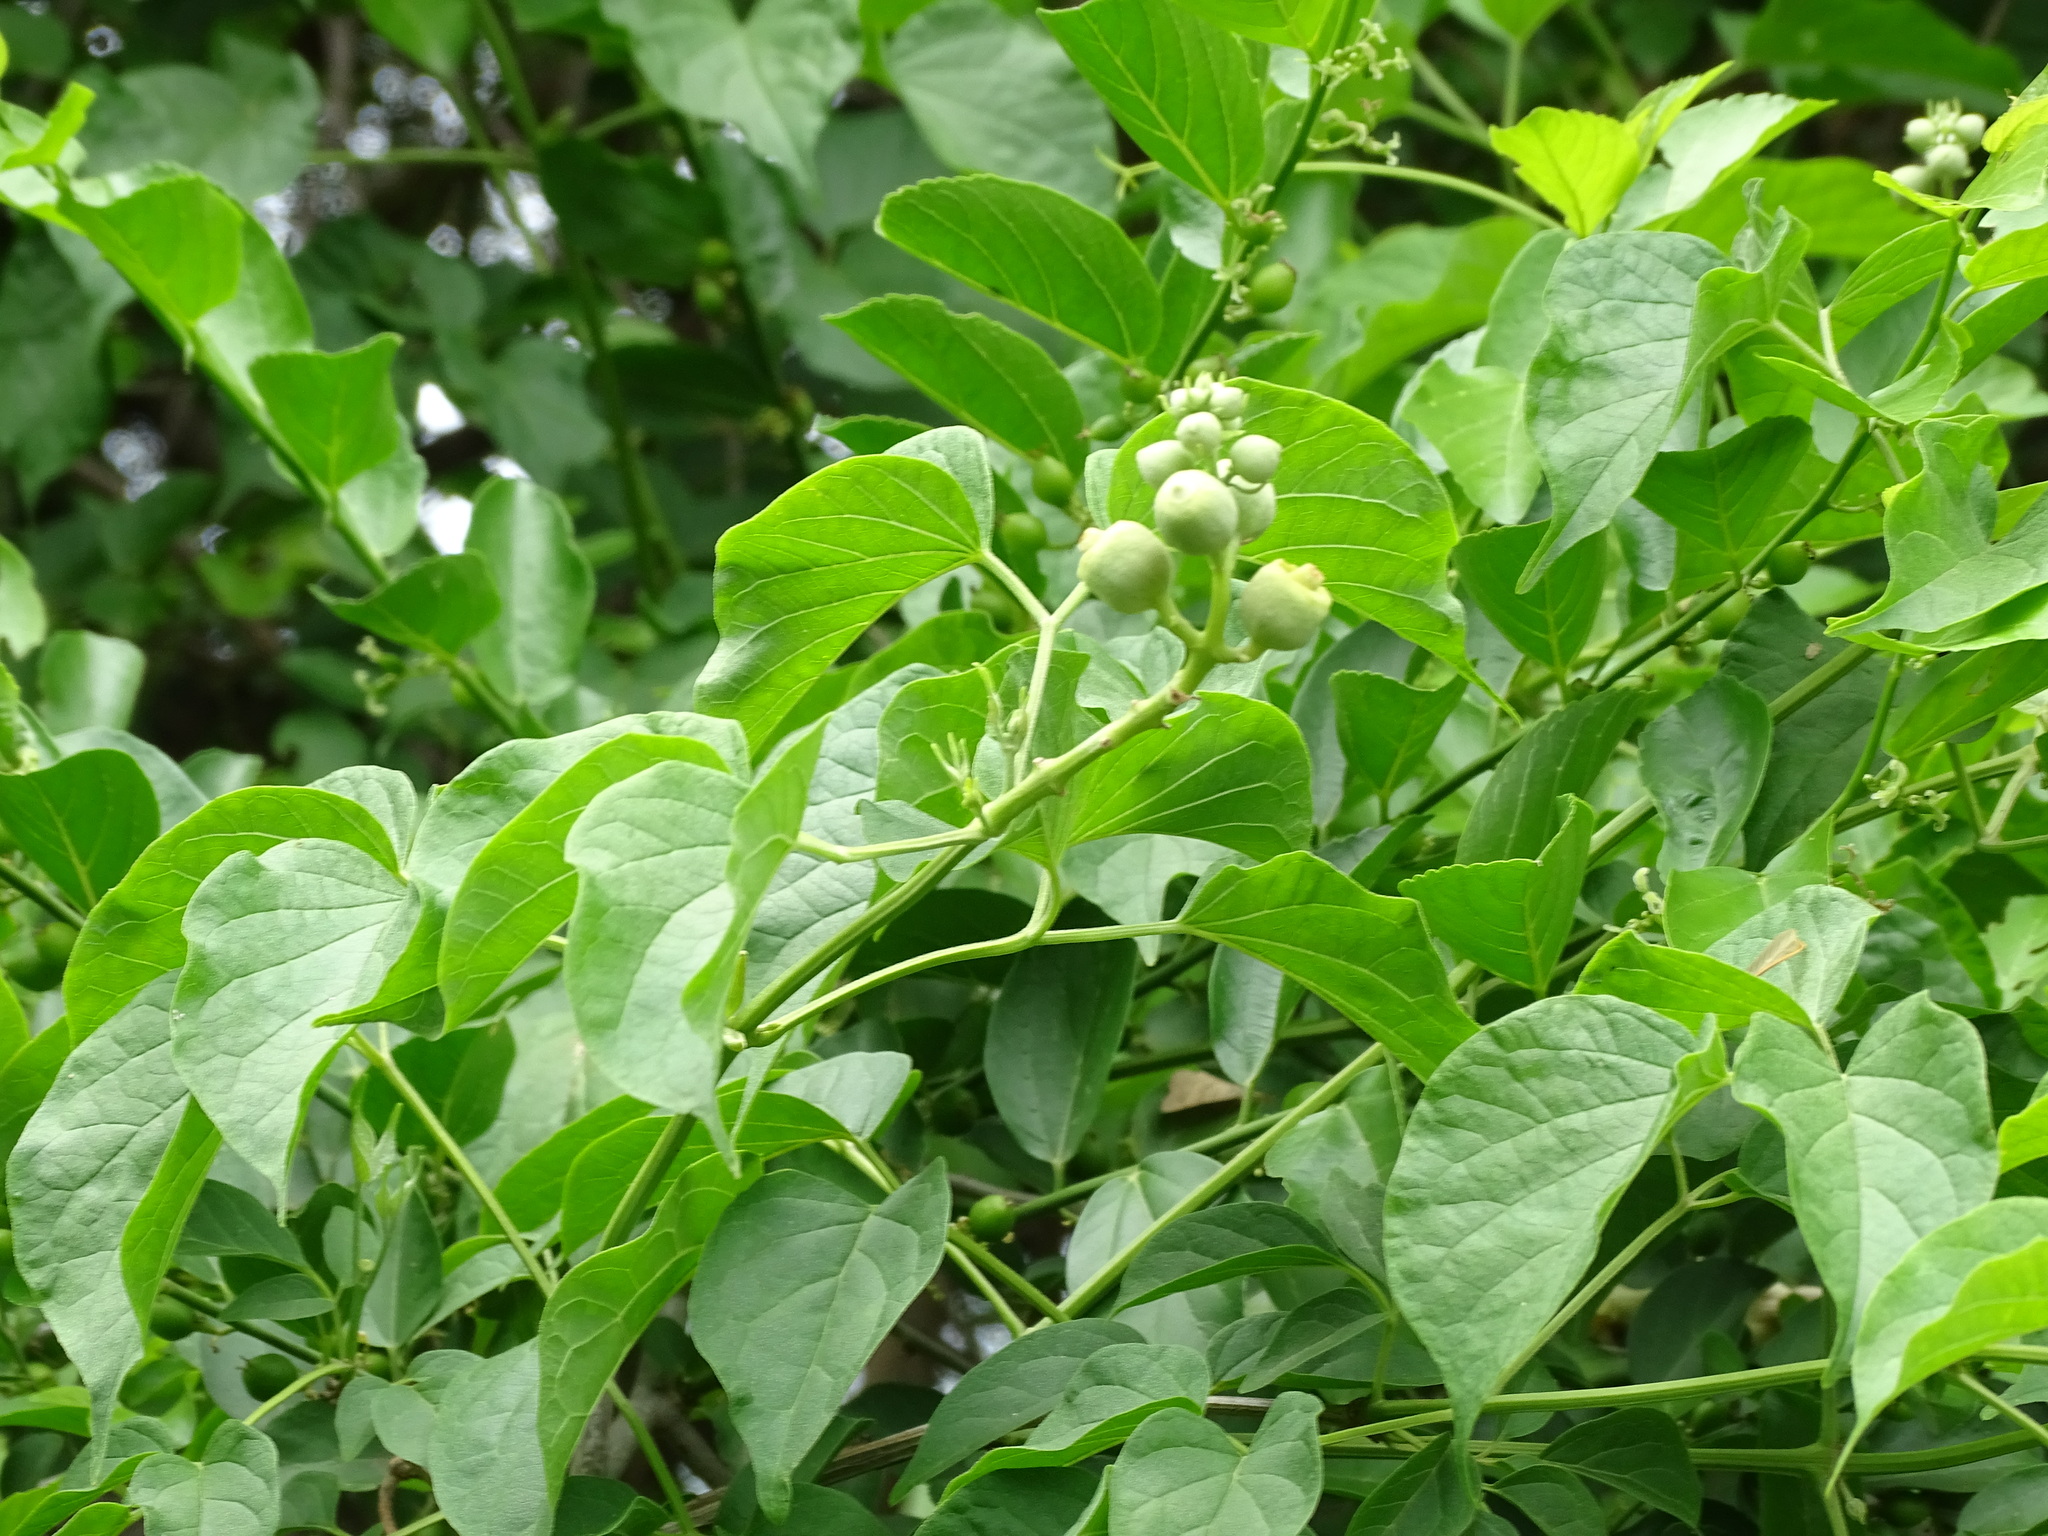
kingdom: Plantae
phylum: Tracheophyta
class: Magnoliopsida
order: Lamiales
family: Bignoniaceae
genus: Amphilophium
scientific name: Amphilophium crucigerum
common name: Monkey comb
